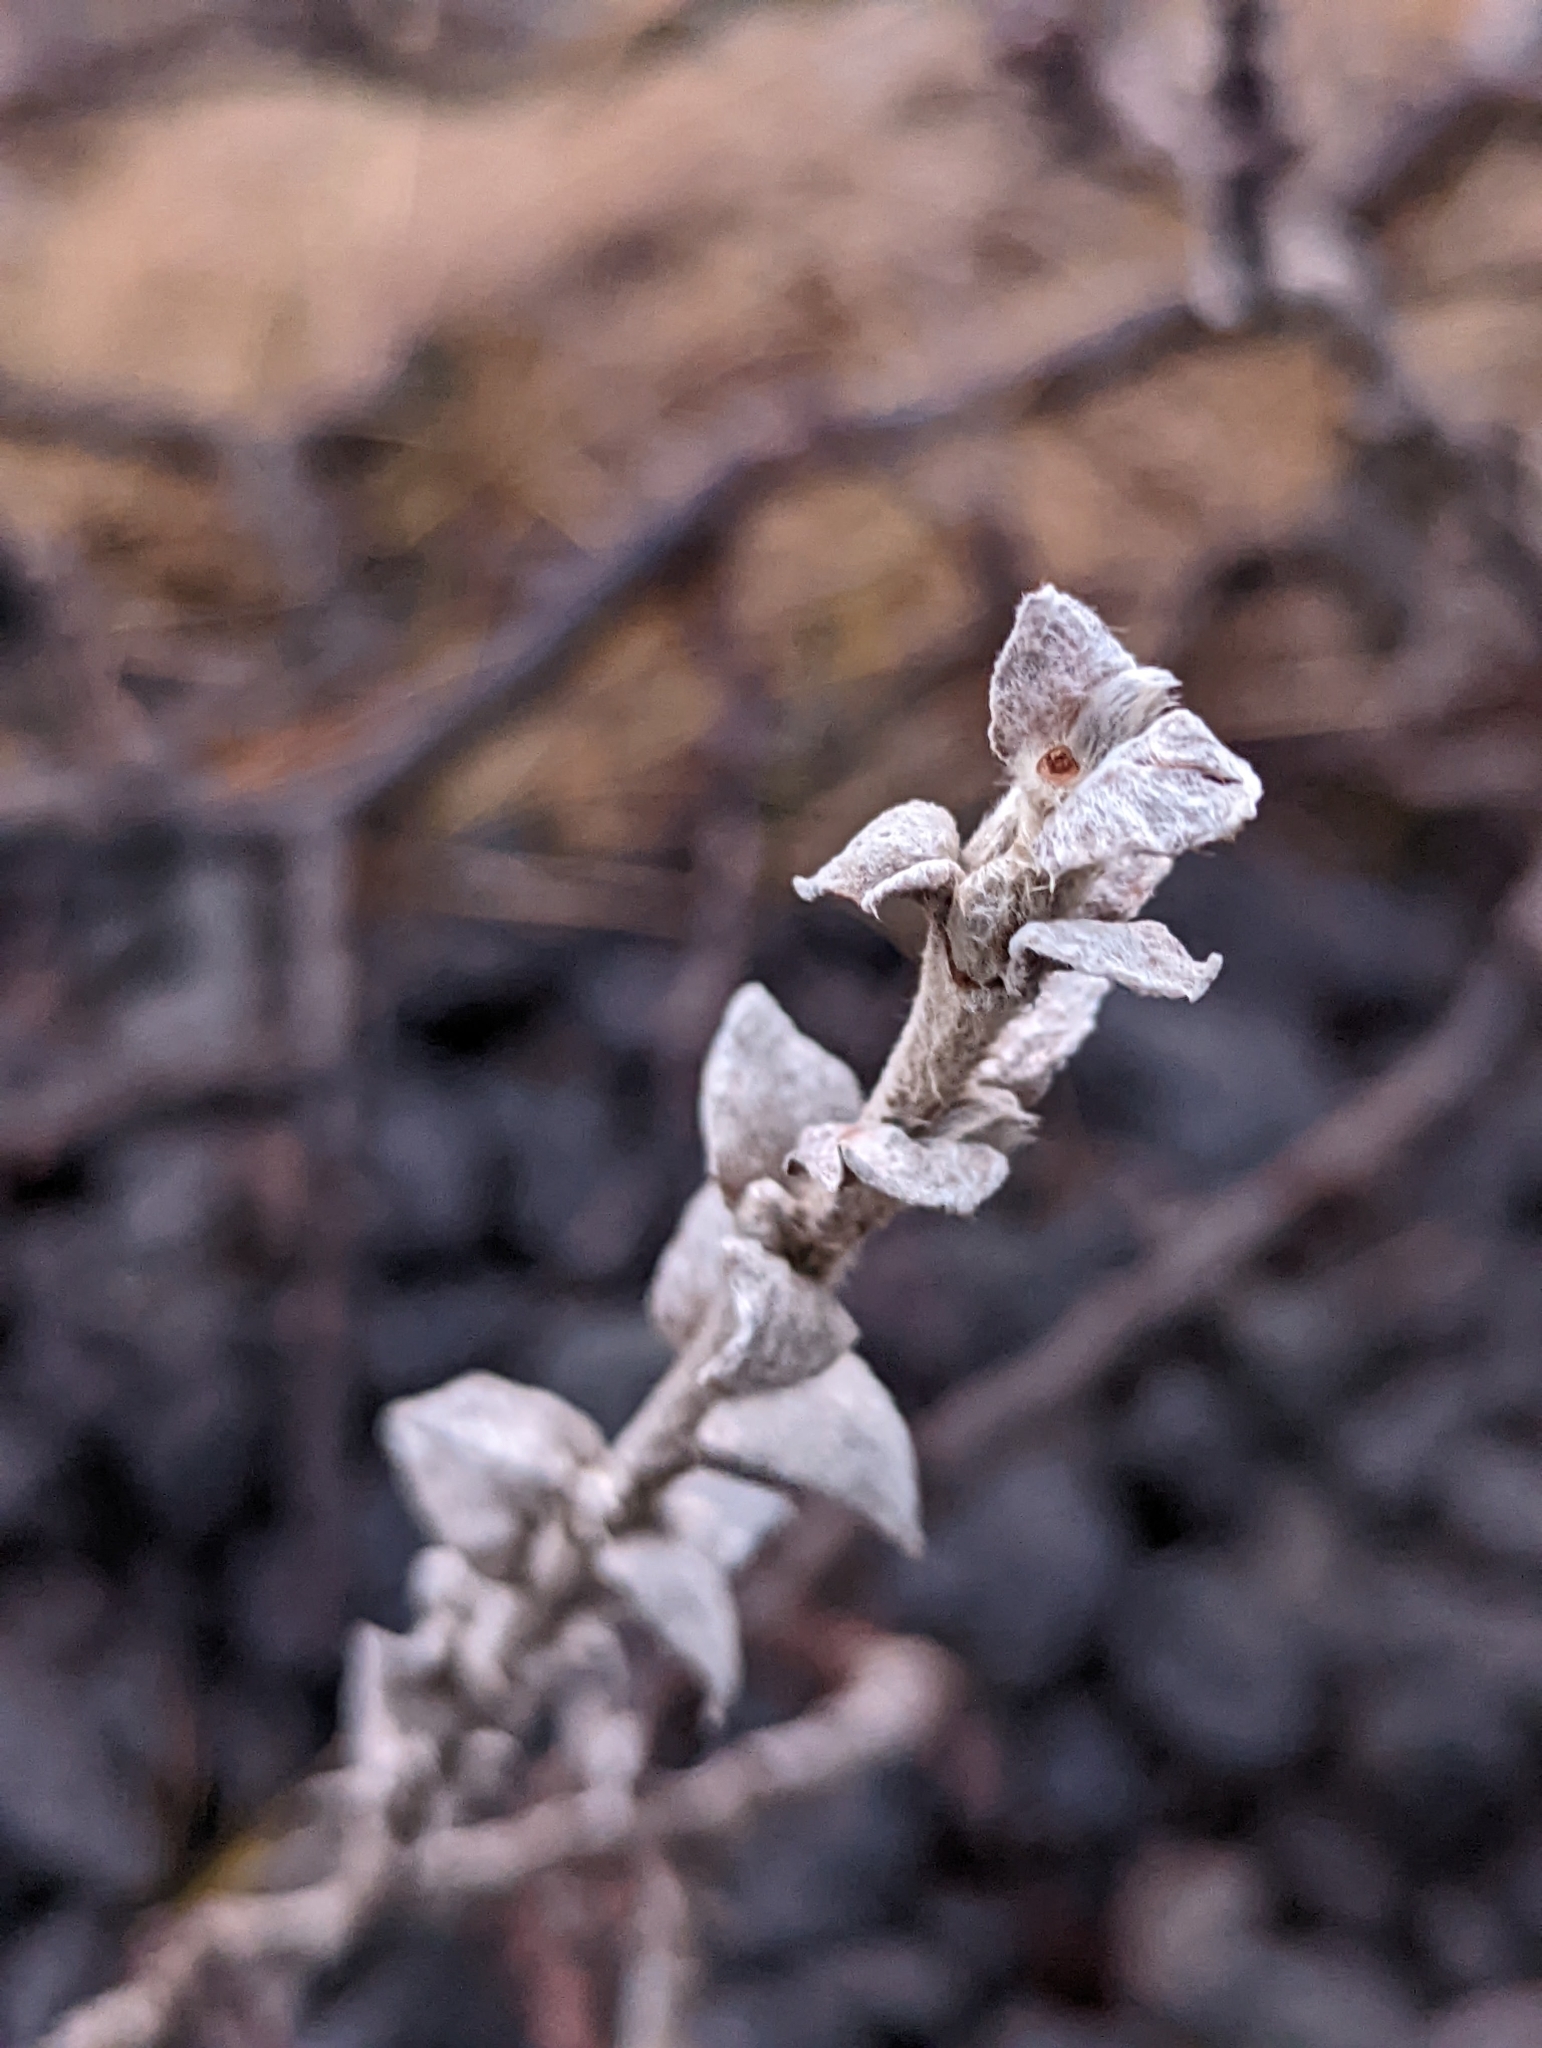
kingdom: Plantae
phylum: Tracheophyta
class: Magnoliopsida
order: Malpighiales
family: Salicaceae
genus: Salix
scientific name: Salix lanata
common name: Woolly willow
